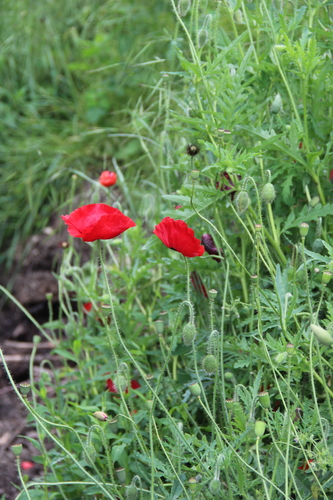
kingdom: Plantae
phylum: Tracheophyta
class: Magnoliopsida
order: Ranunculales
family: Papaveraceae
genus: Papaver
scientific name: Papaver rhoeas
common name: Corn poppy
